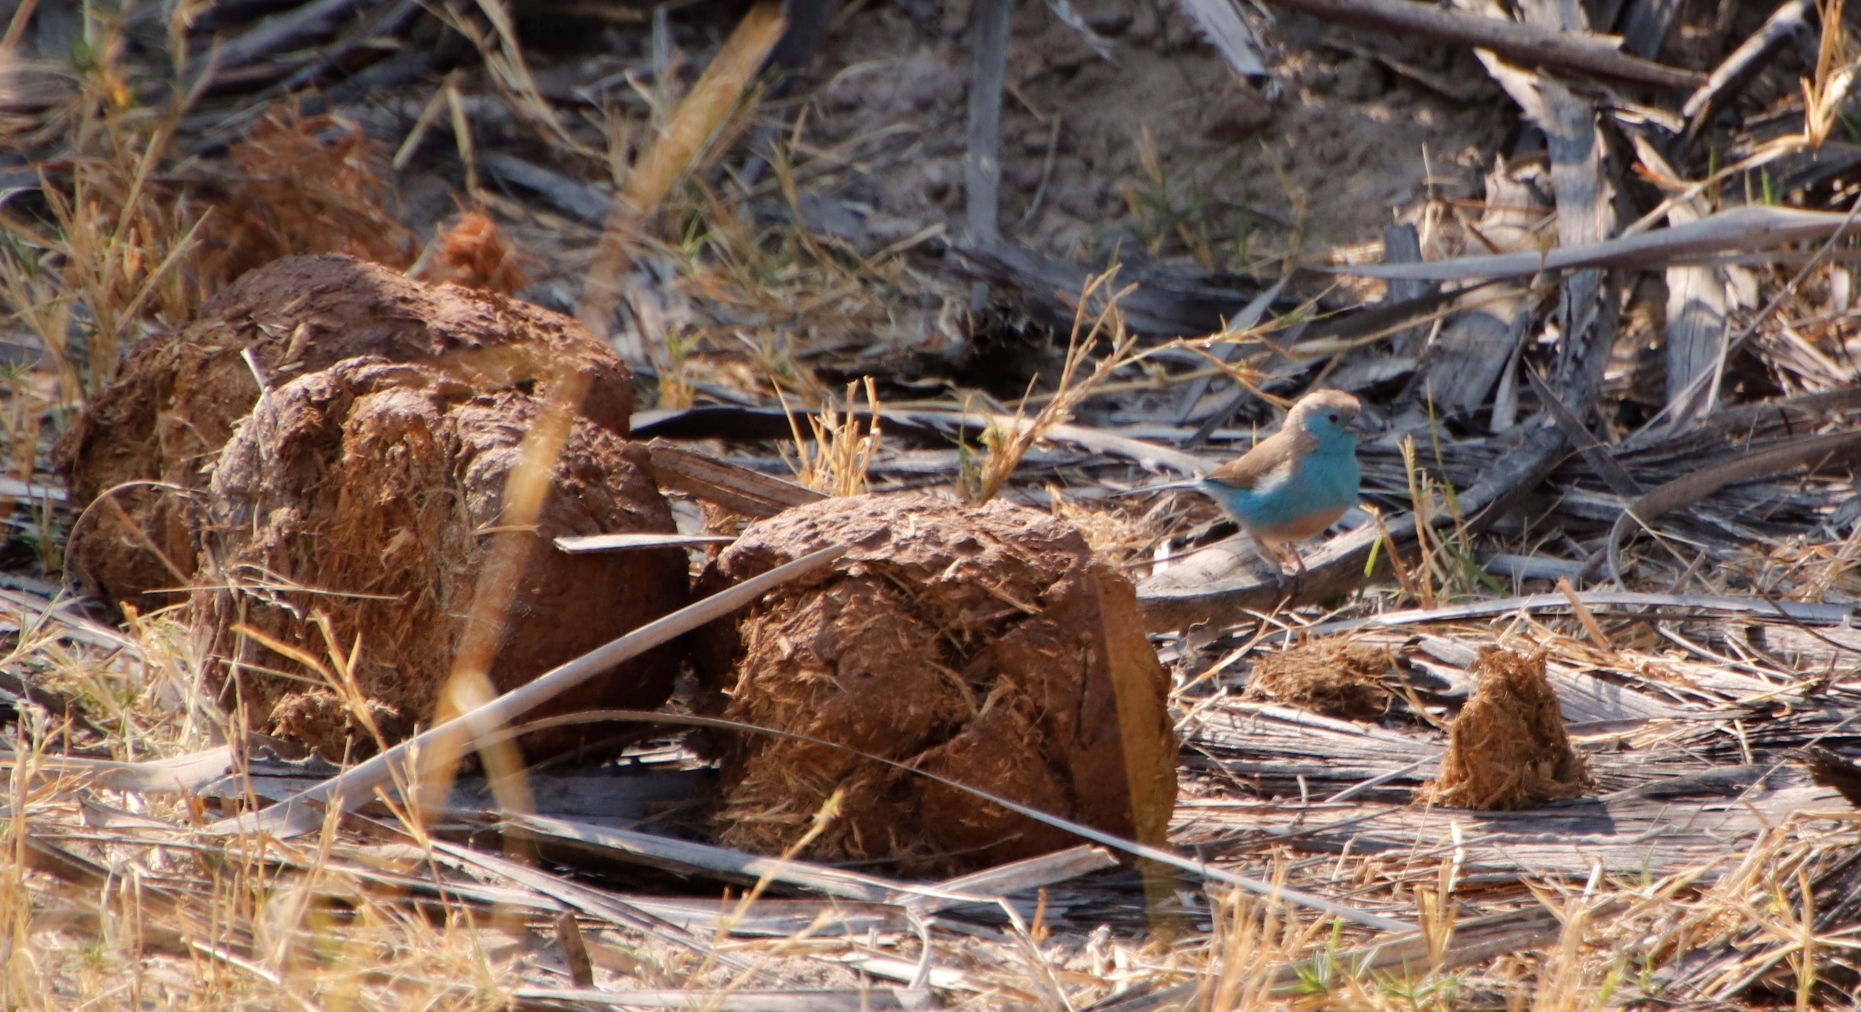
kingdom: Animalia
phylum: Chordata
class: Aves
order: Passeriformes
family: Estrildidae
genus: Uraeginthus
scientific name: Uraeginthus angolensis
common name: Blue waxbill
